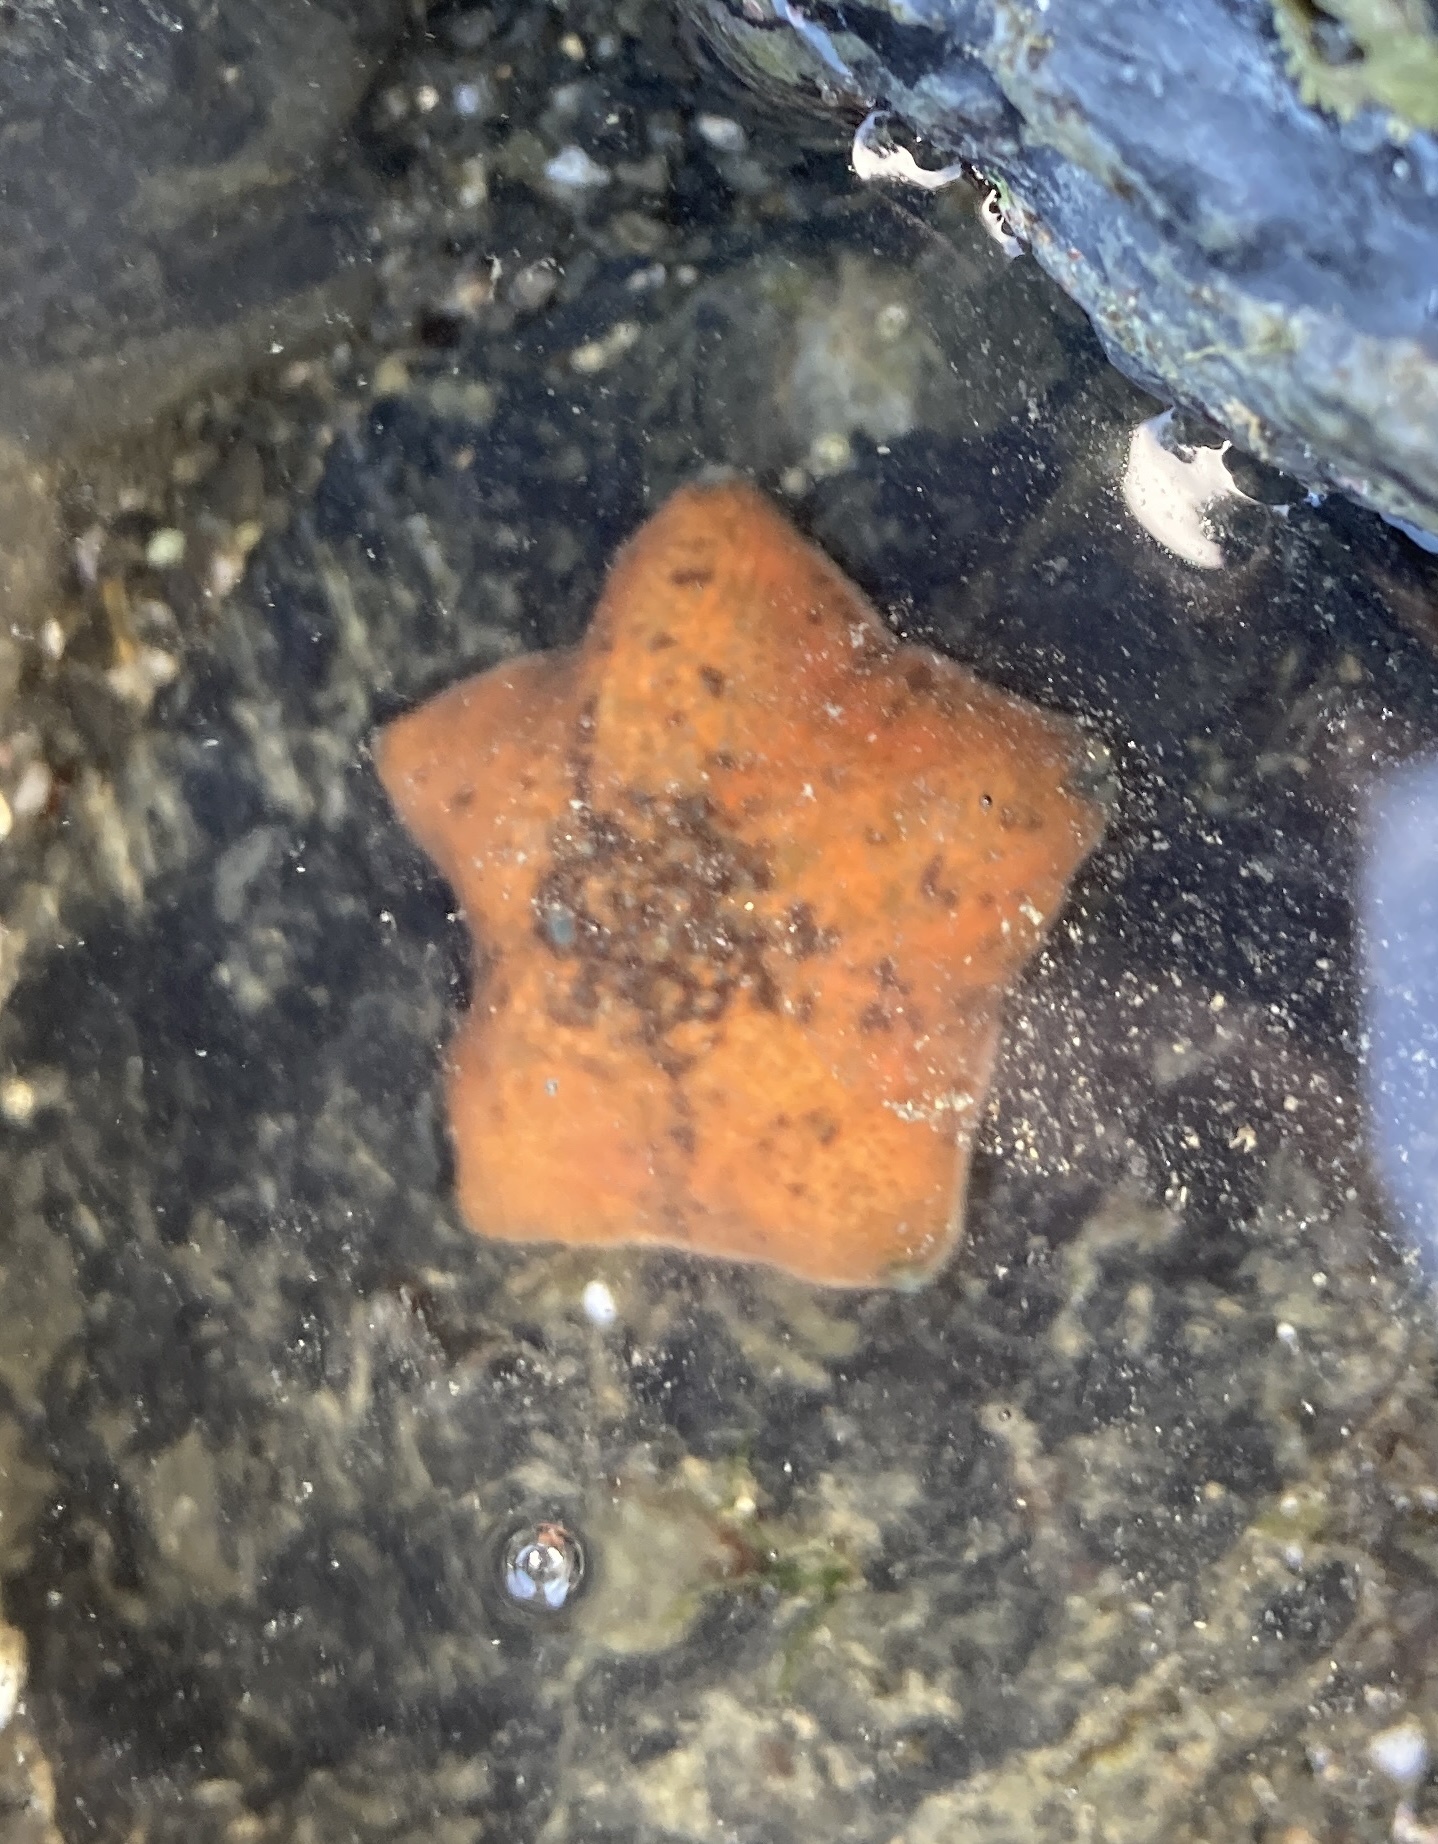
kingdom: Animalia
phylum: Echinodermata
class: Asteroidea
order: Valvatida
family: Asterinidae
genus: Patiriella
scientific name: Patiriella regularis
